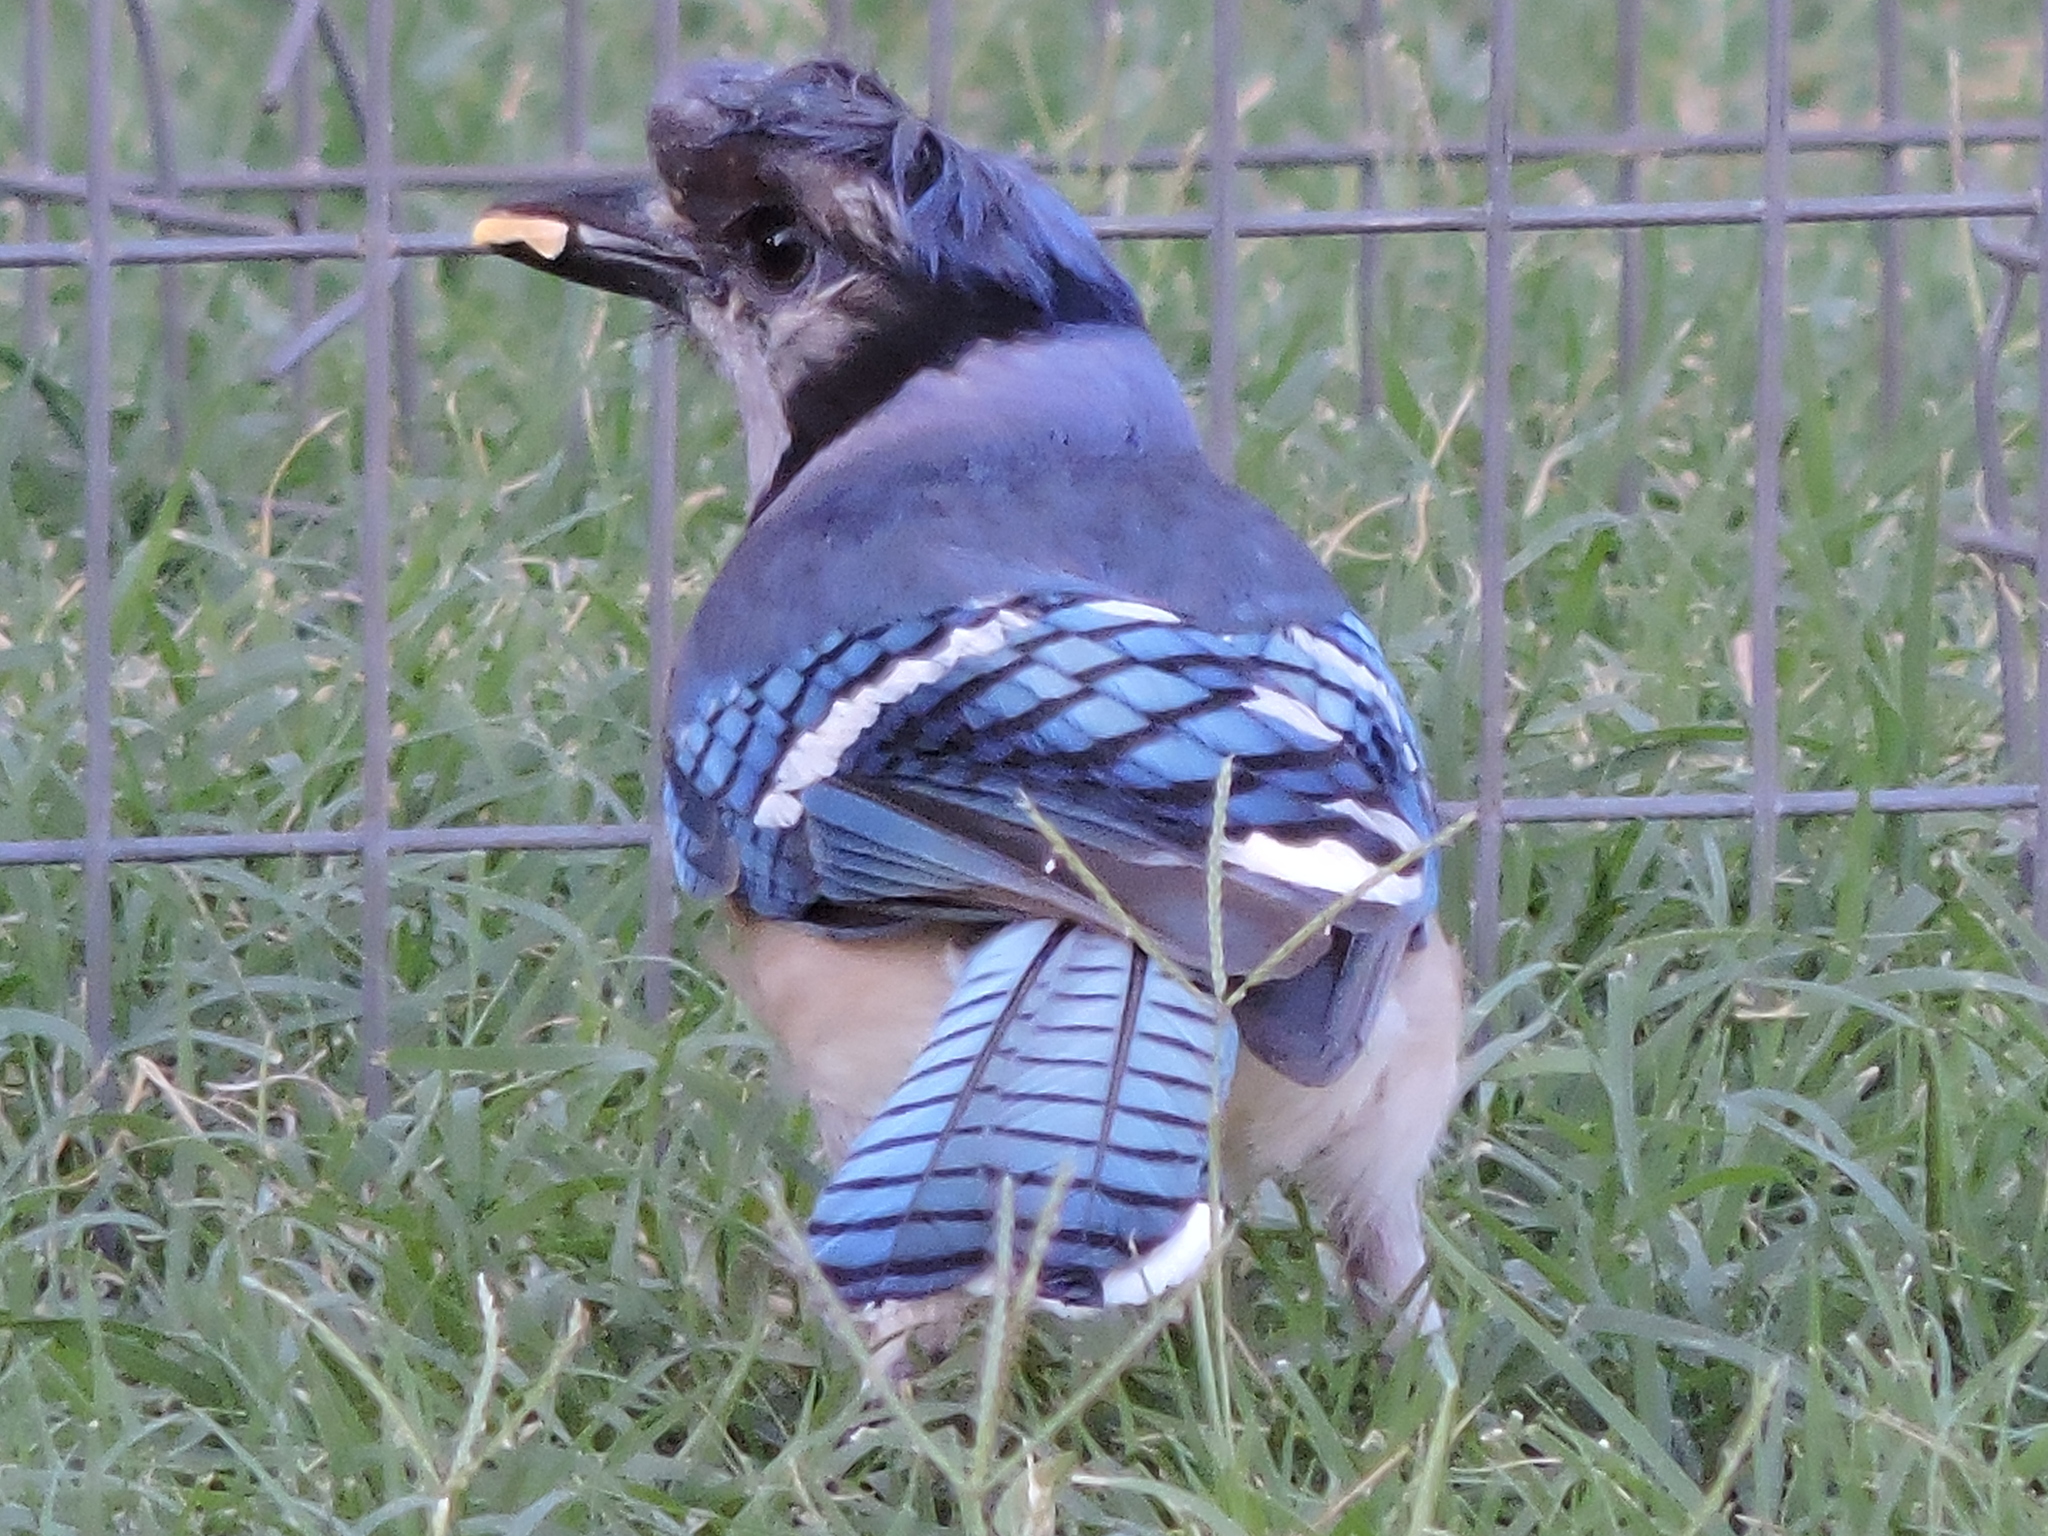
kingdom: Animalia
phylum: Chordata
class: Aves
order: Passeriformes
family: Corvidae
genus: Cyanocitta
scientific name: Cyanocitta cristata
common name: Blue jay
